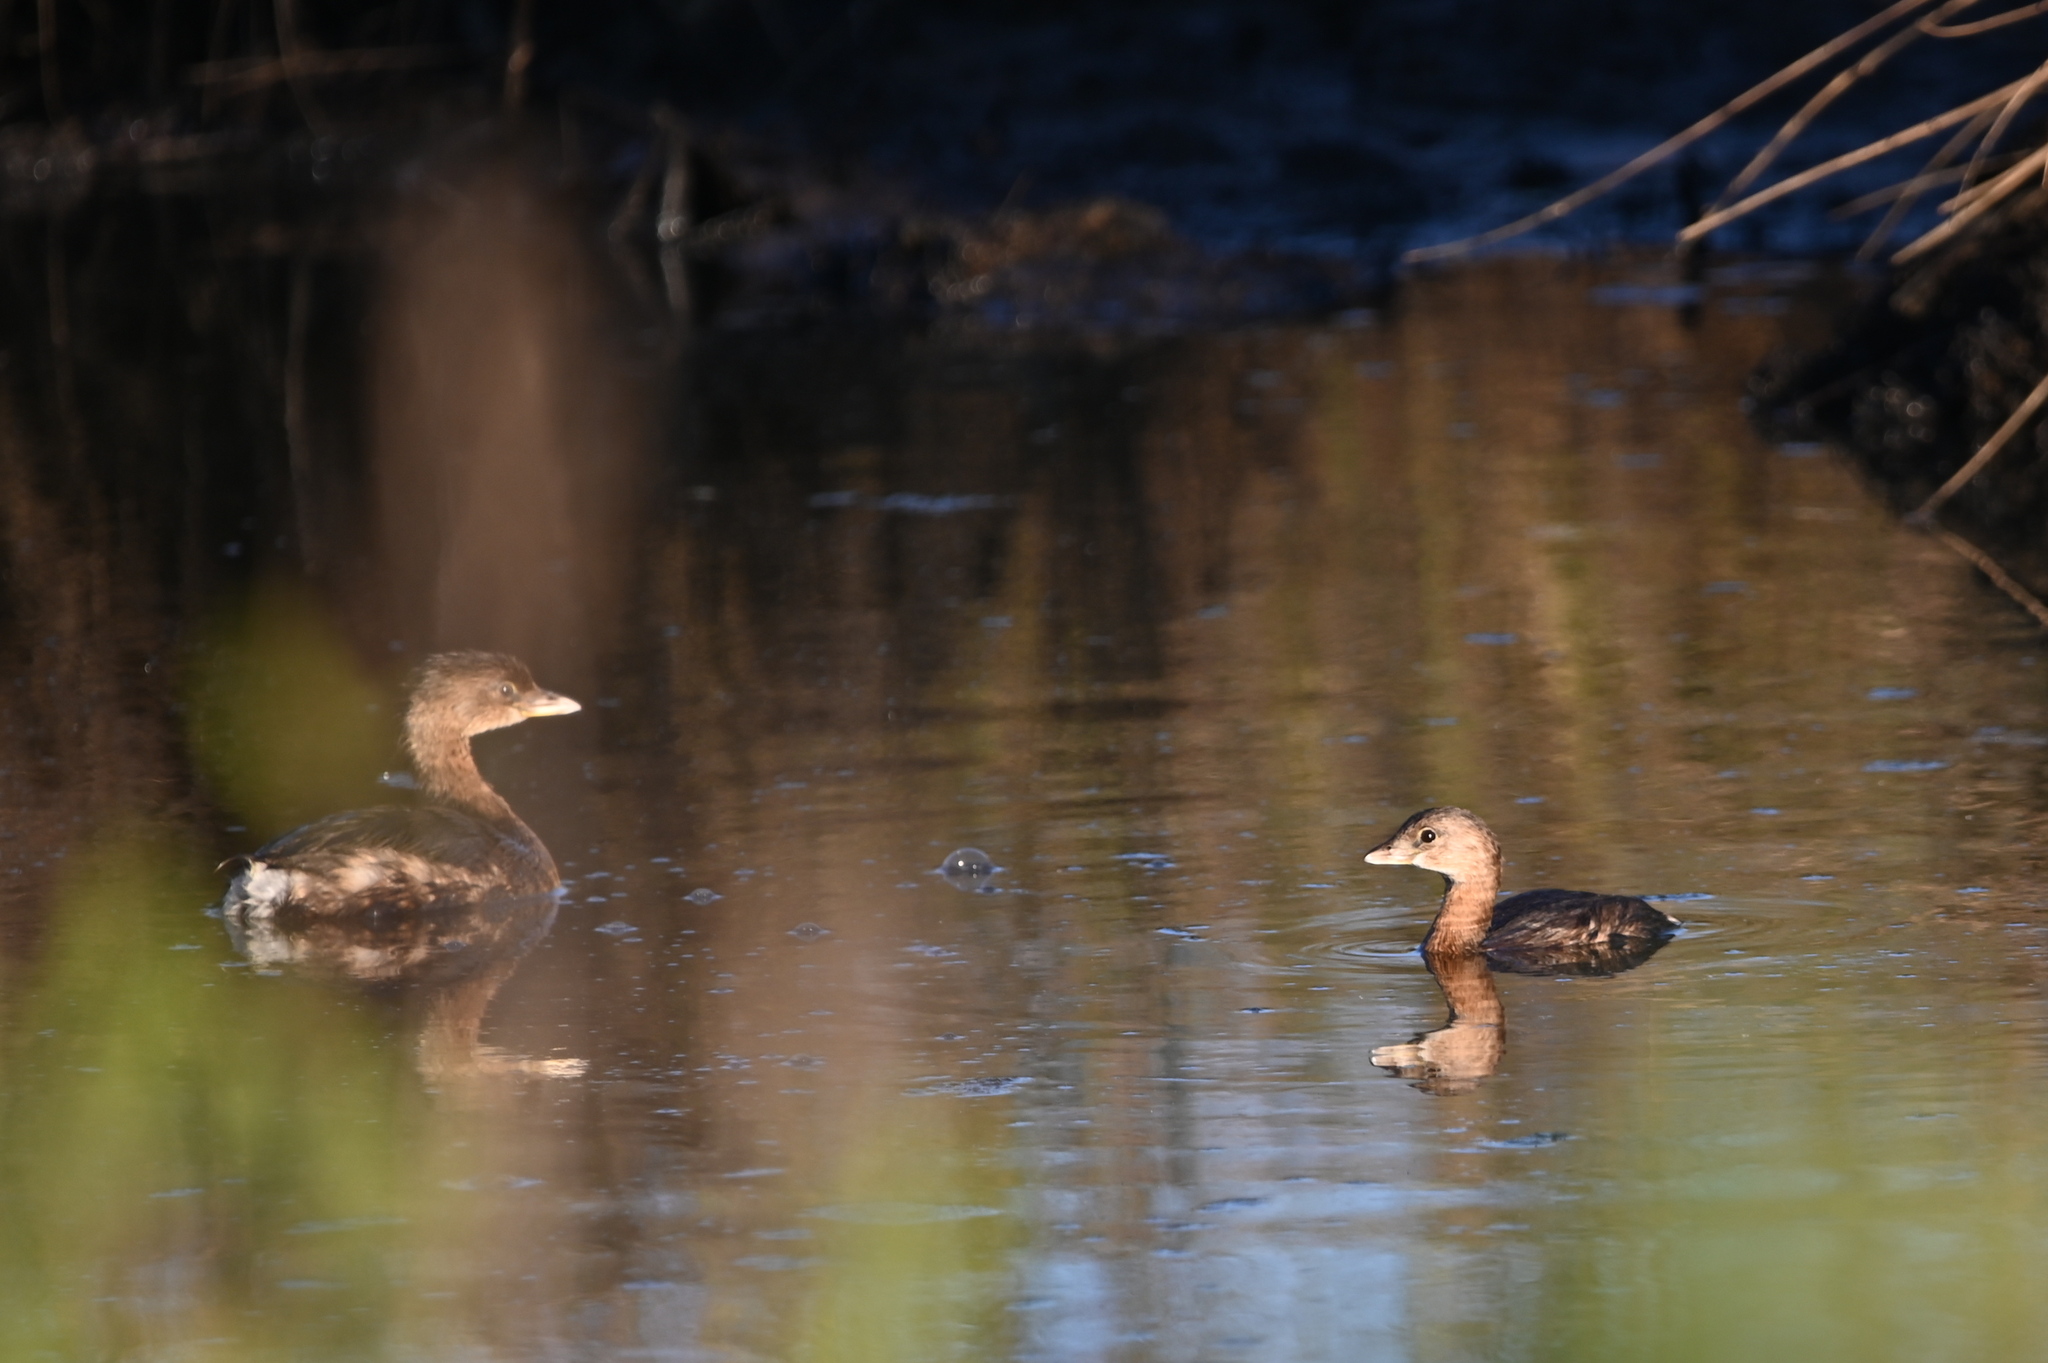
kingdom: Animalia
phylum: Chordata
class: Aves
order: Podicipediformes
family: Podicipedidae
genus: Podilymbus
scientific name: Podilymbus podiceps
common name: Pied-billed grebe
